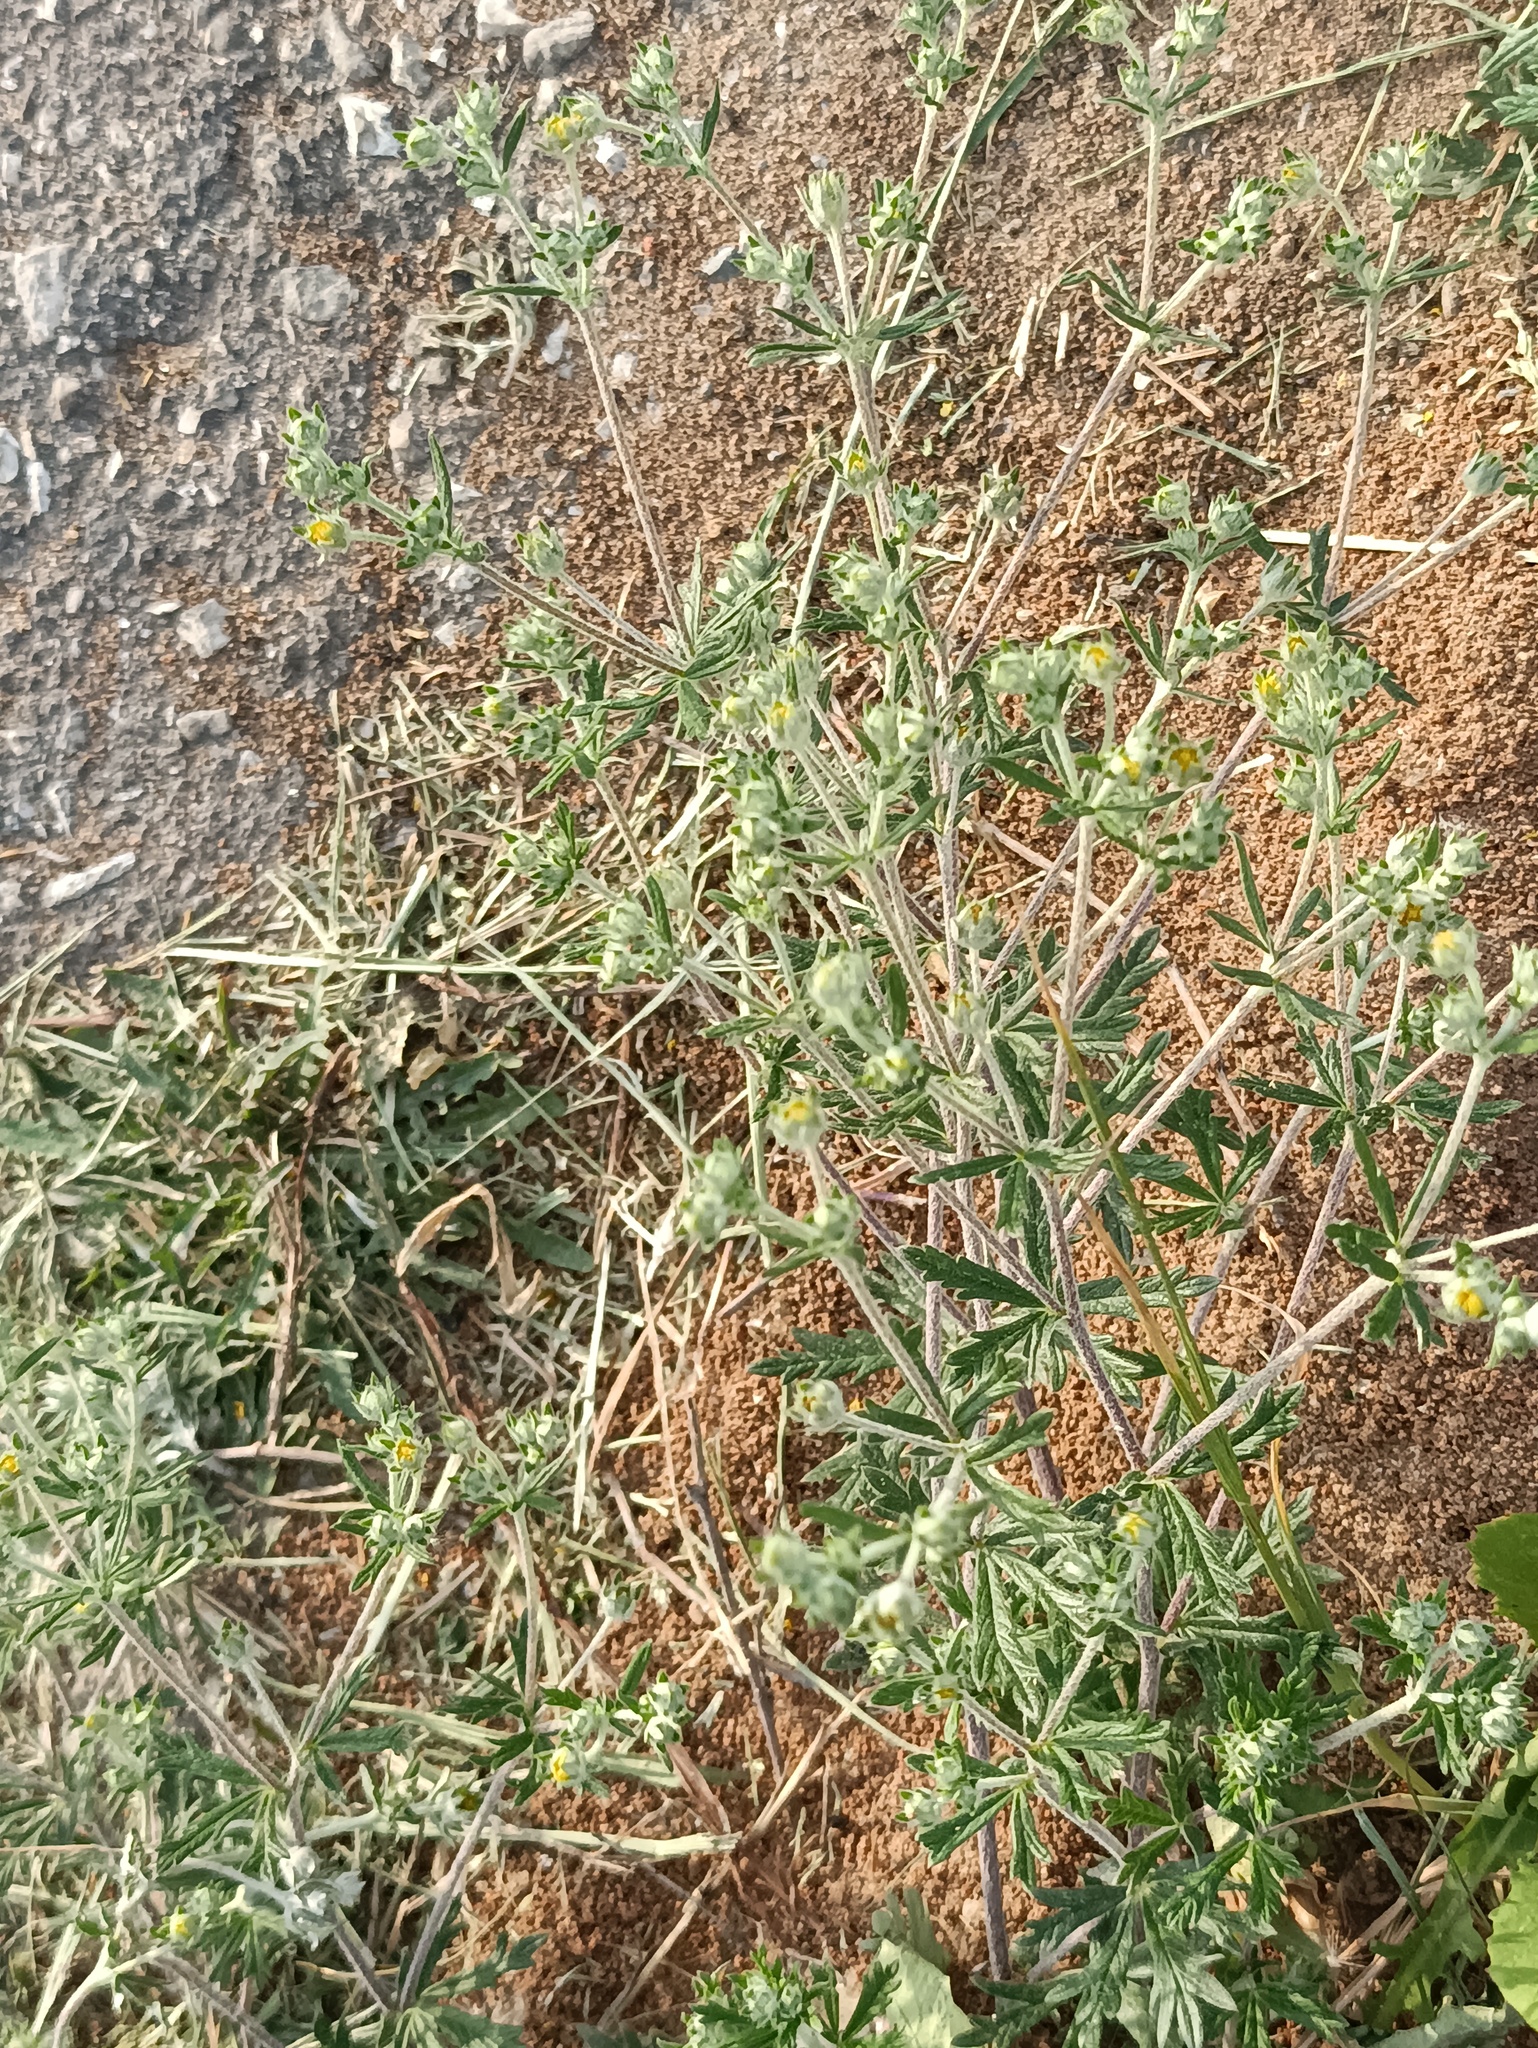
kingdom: Plantae
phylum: Tracheophyta
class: Magnoliopsida
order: Rosales
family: Rosaceae
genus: Potentilla
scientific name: Potentilla argentea
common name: Hoary cinquefoil
